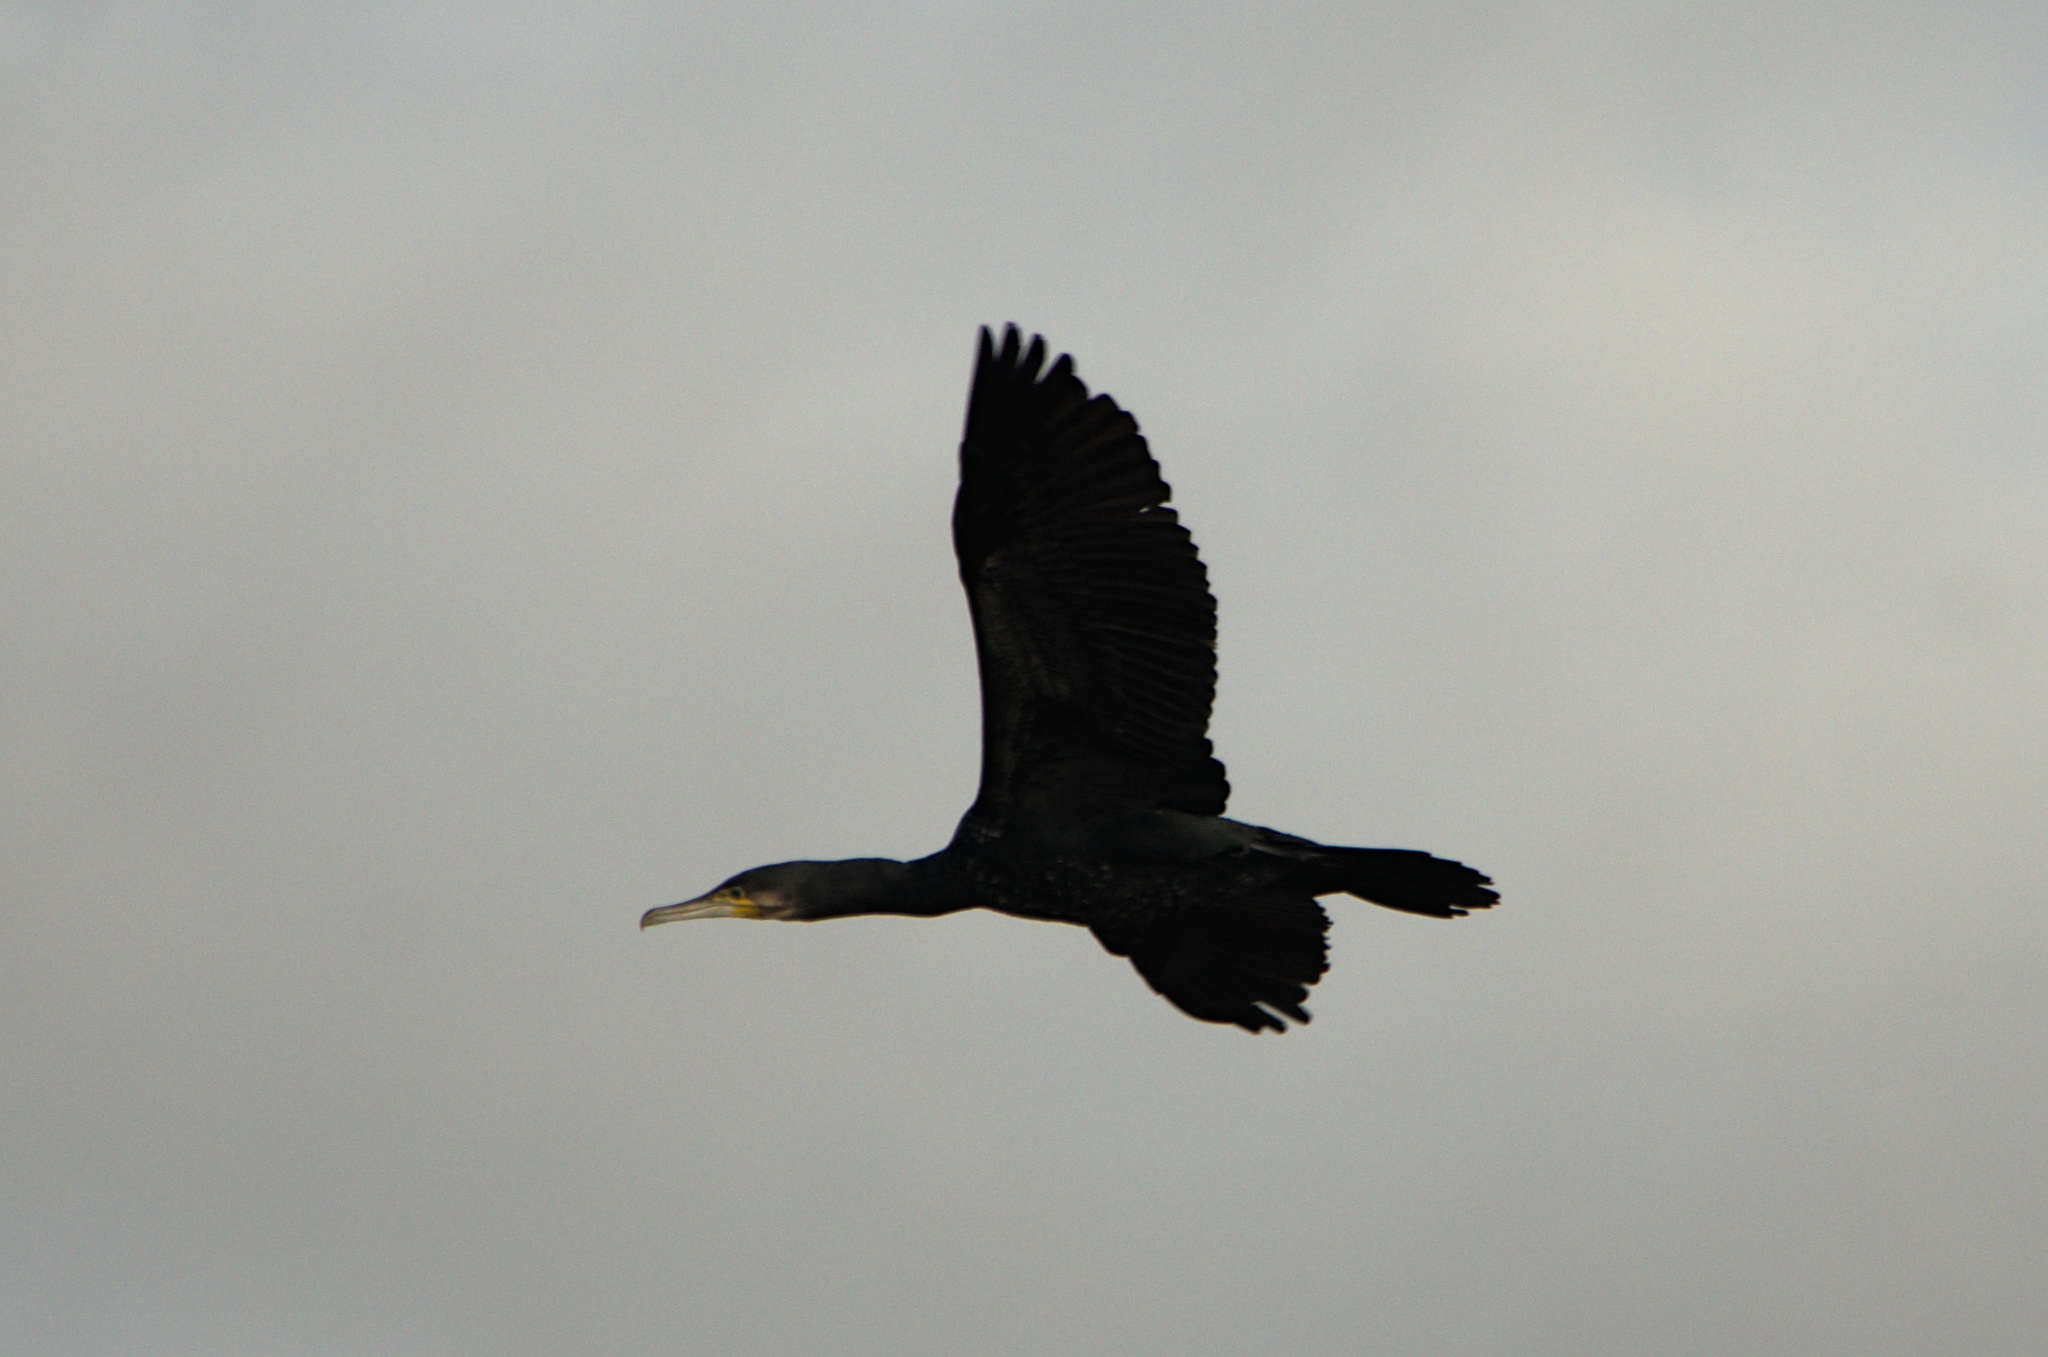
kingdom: Animalia
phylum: Chordata
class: Aves
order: Suliformes
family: Phalacrocoracidae
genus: Phalacrocorax
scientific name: Phalacrocorax carbo
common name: Great cormorant
